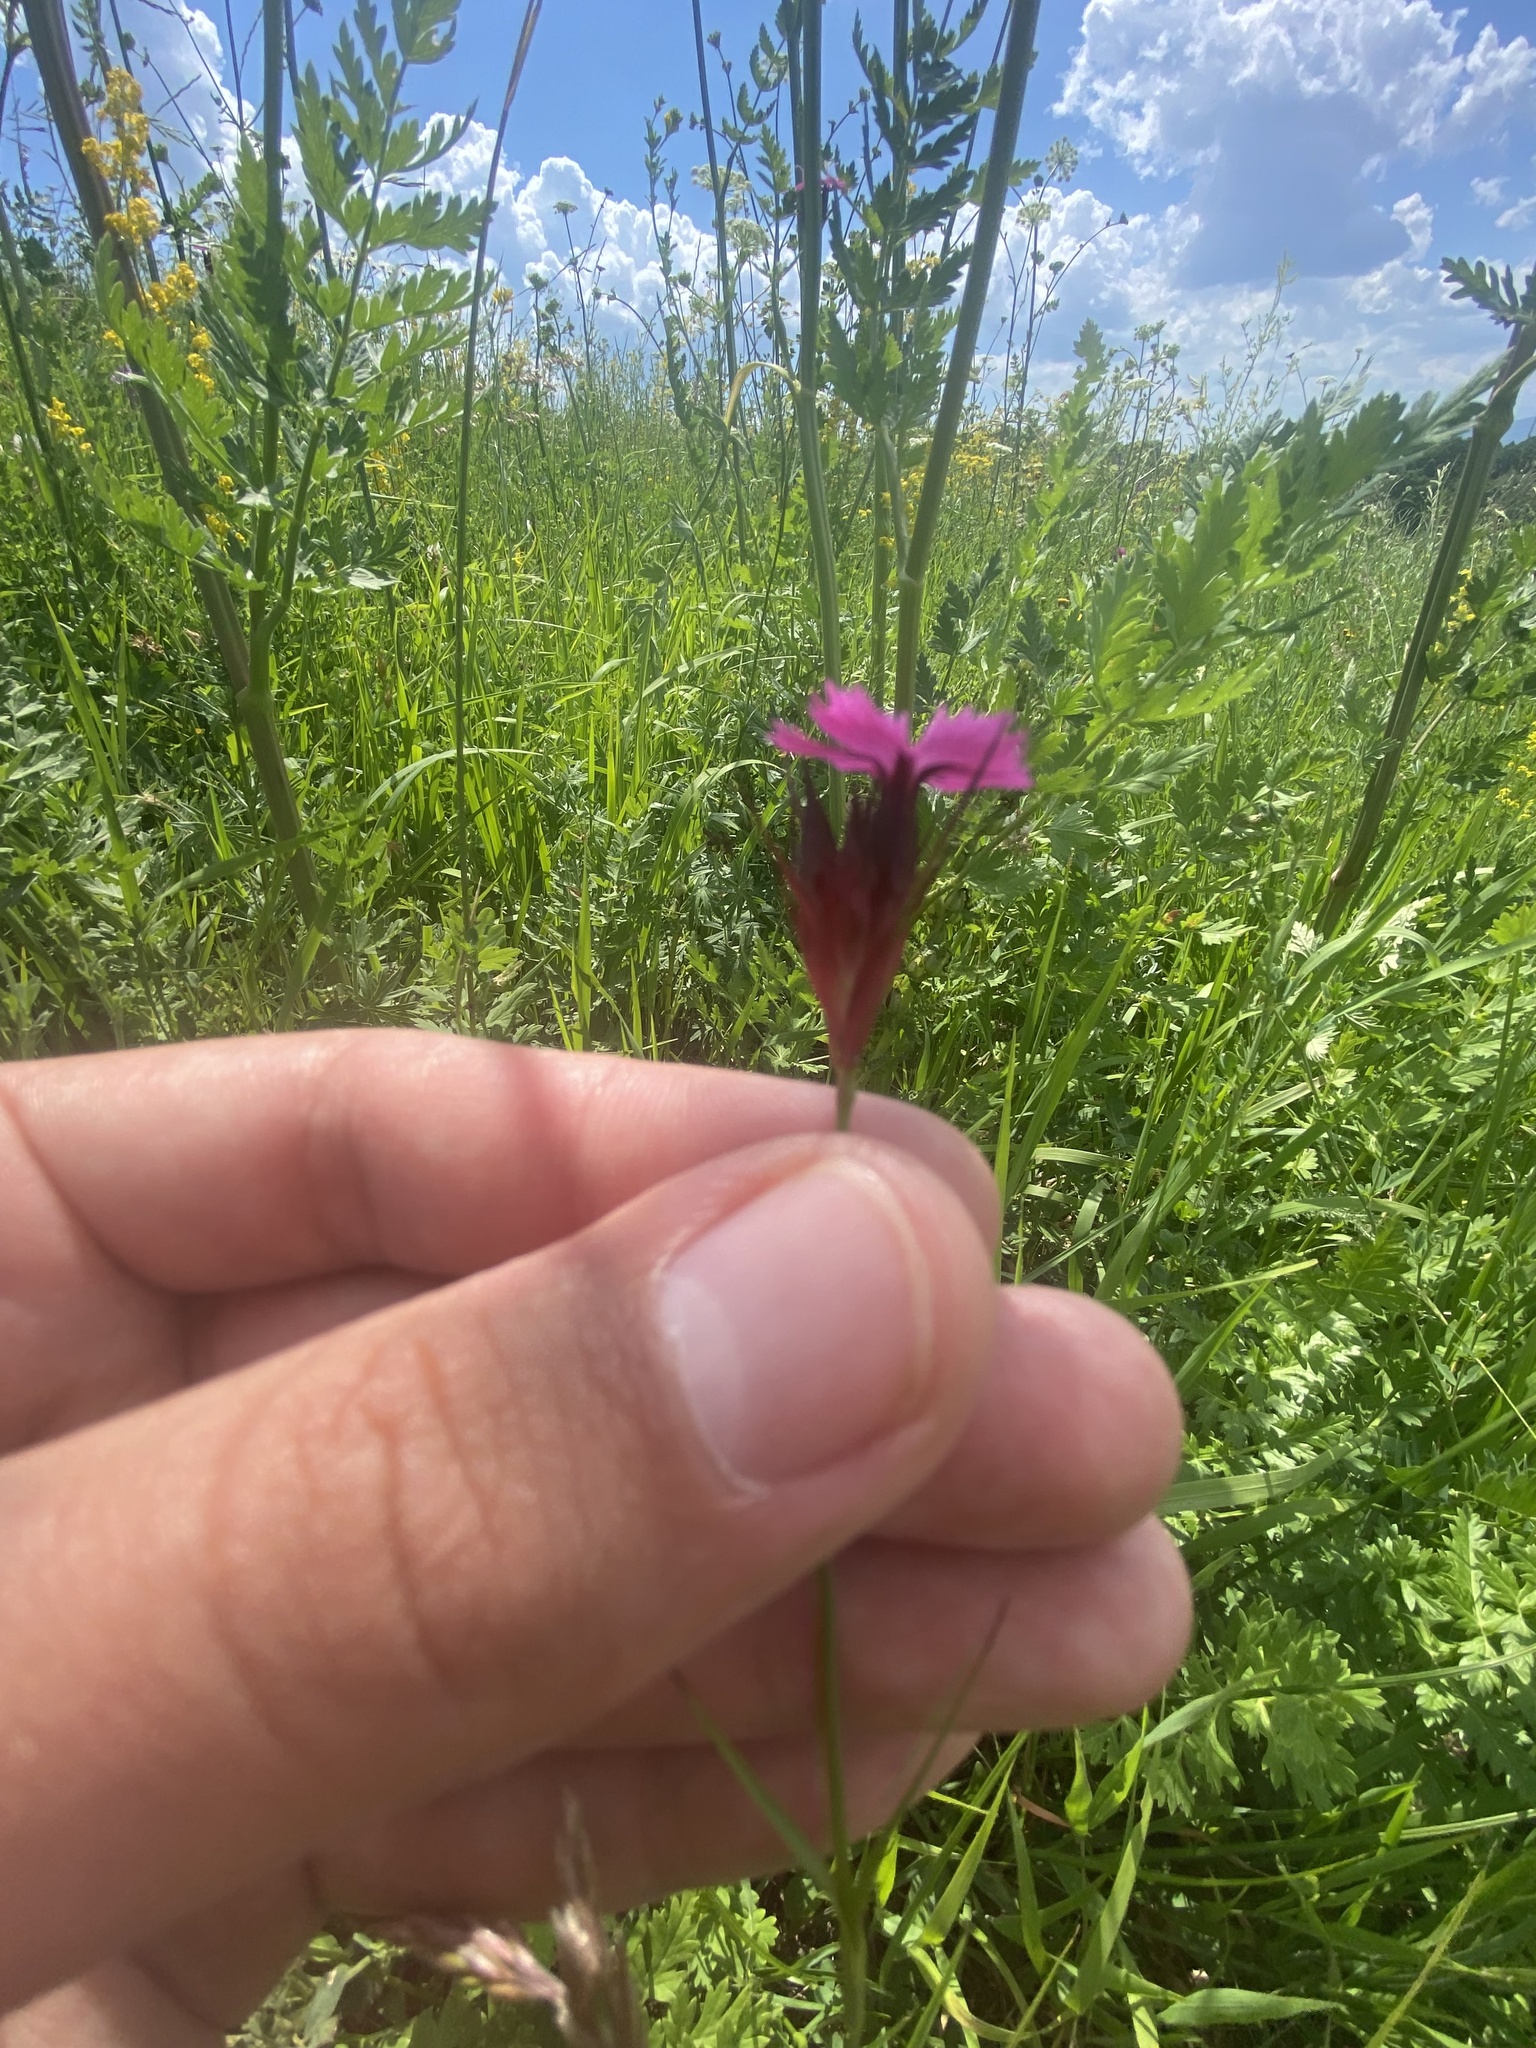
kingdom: Plantae
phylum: Tracheophyta
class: Magnoliopsida
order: Caryophyllales
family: Caryophyllaceae
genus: Dianthus
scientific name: Dianthus capitatus
